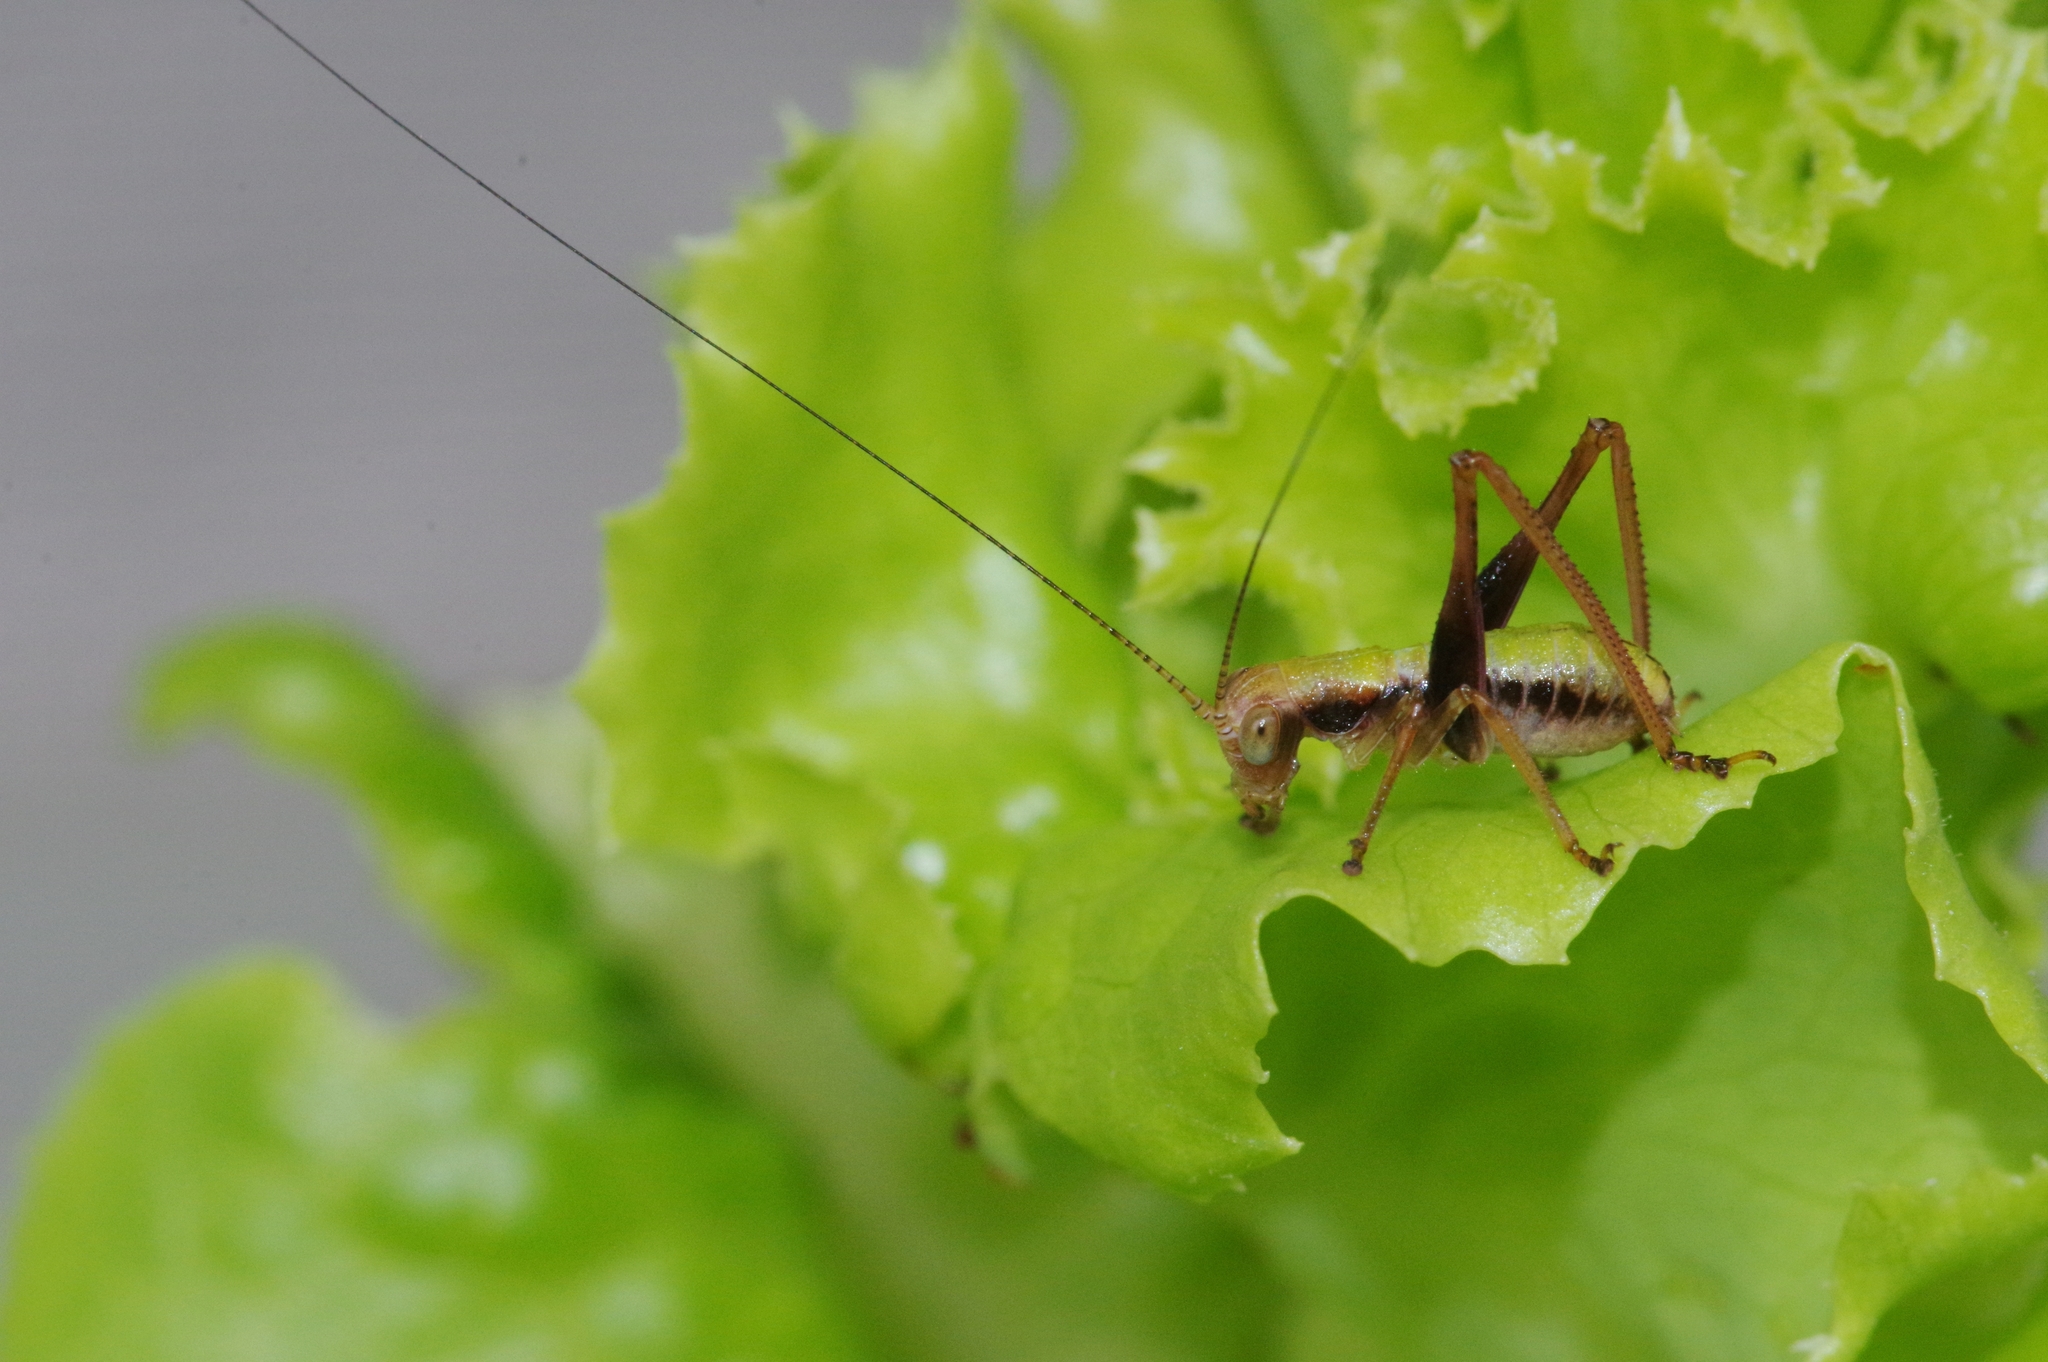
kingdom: Animalia
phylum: Arthropoda
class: Insecta
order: Orthoptera
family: Tettigoniidae
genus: Isopsera
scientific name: Isopsera denticulata
